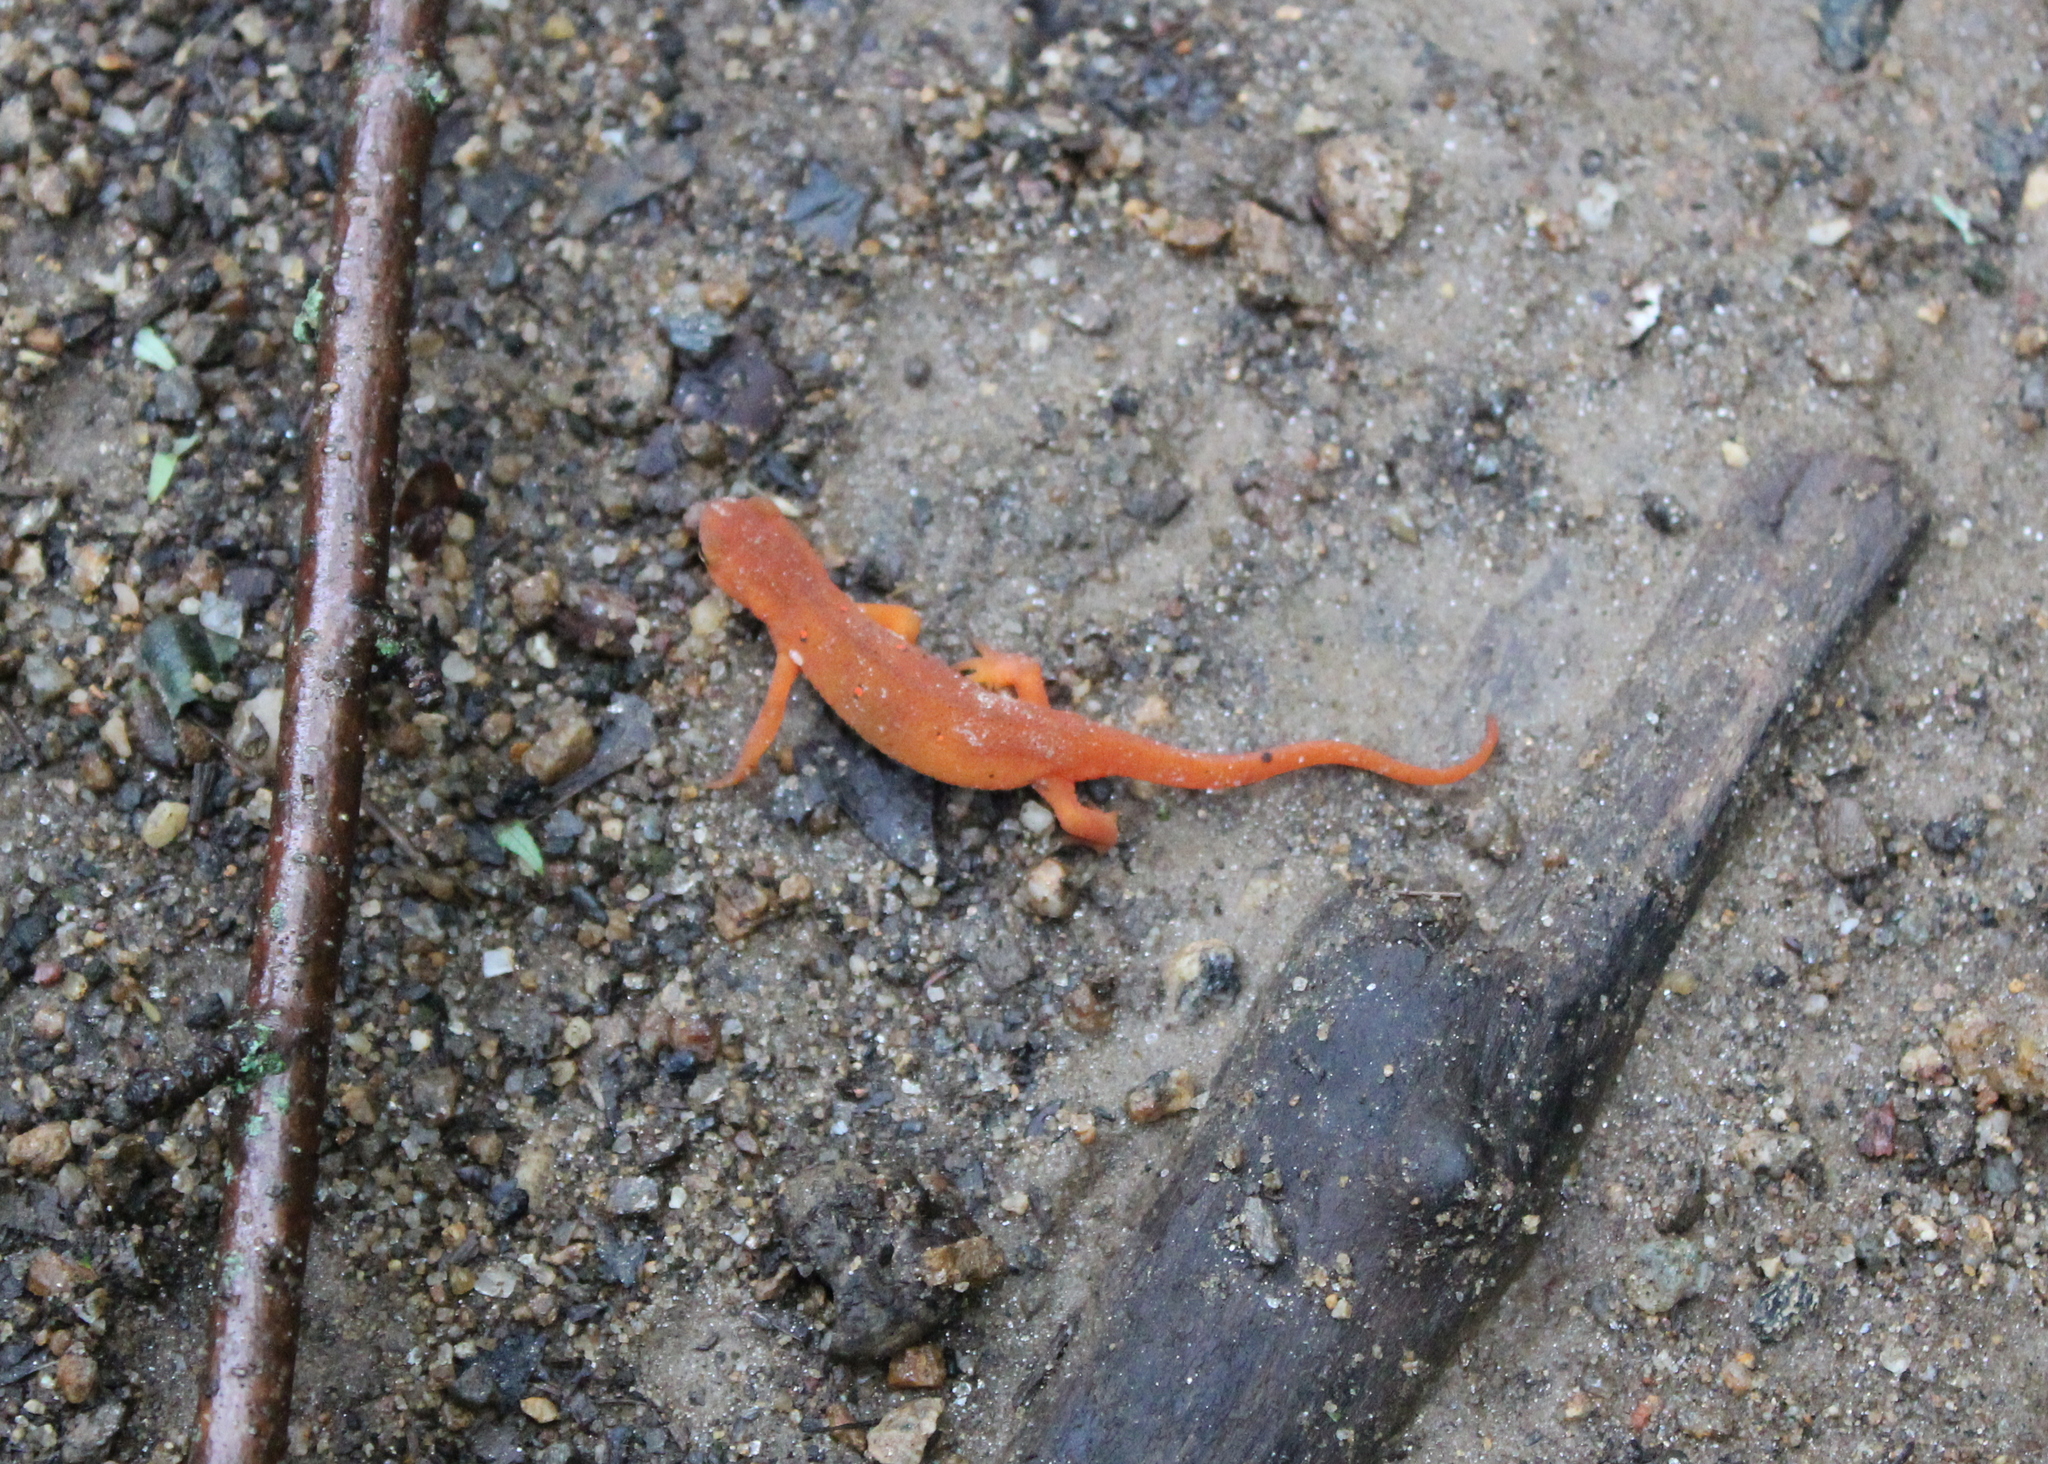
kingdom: Animalia
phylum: Chordata
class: Amphibia
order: Caudata
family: Salamandridae
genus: Notophthalmus
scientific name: Notophthalmus viridescens
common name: Eastern newt
